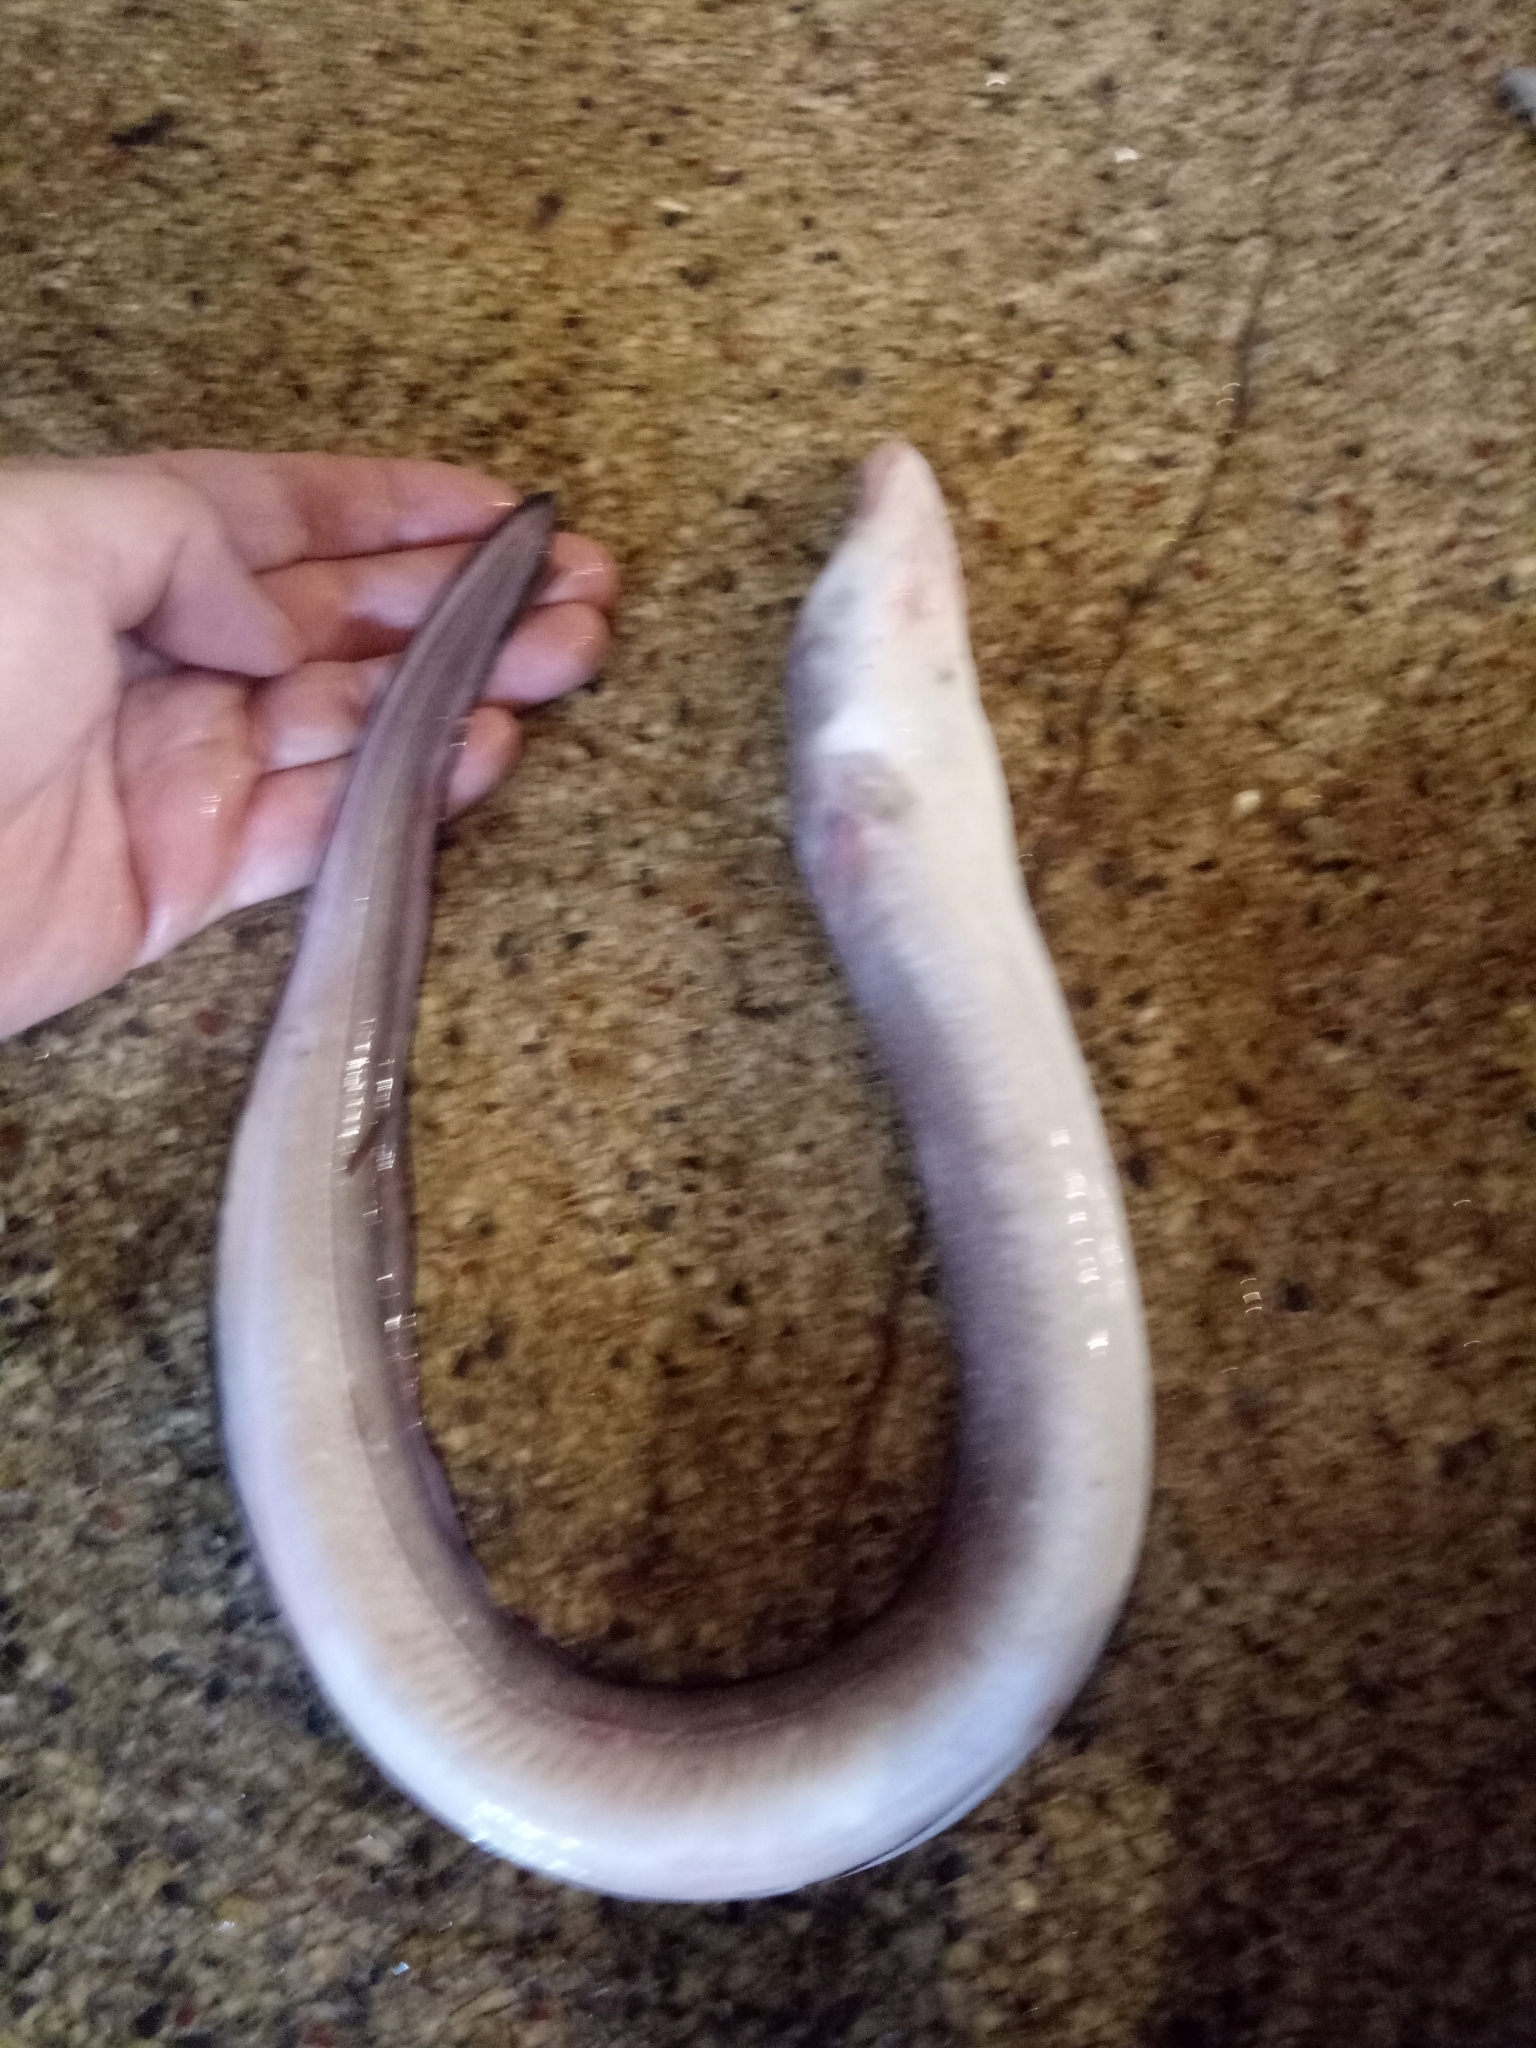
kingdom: Animalia
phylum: Chordata
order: Anguilliformes
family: Congridae
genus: Conger
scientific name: Conger conger
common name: Conger eel
